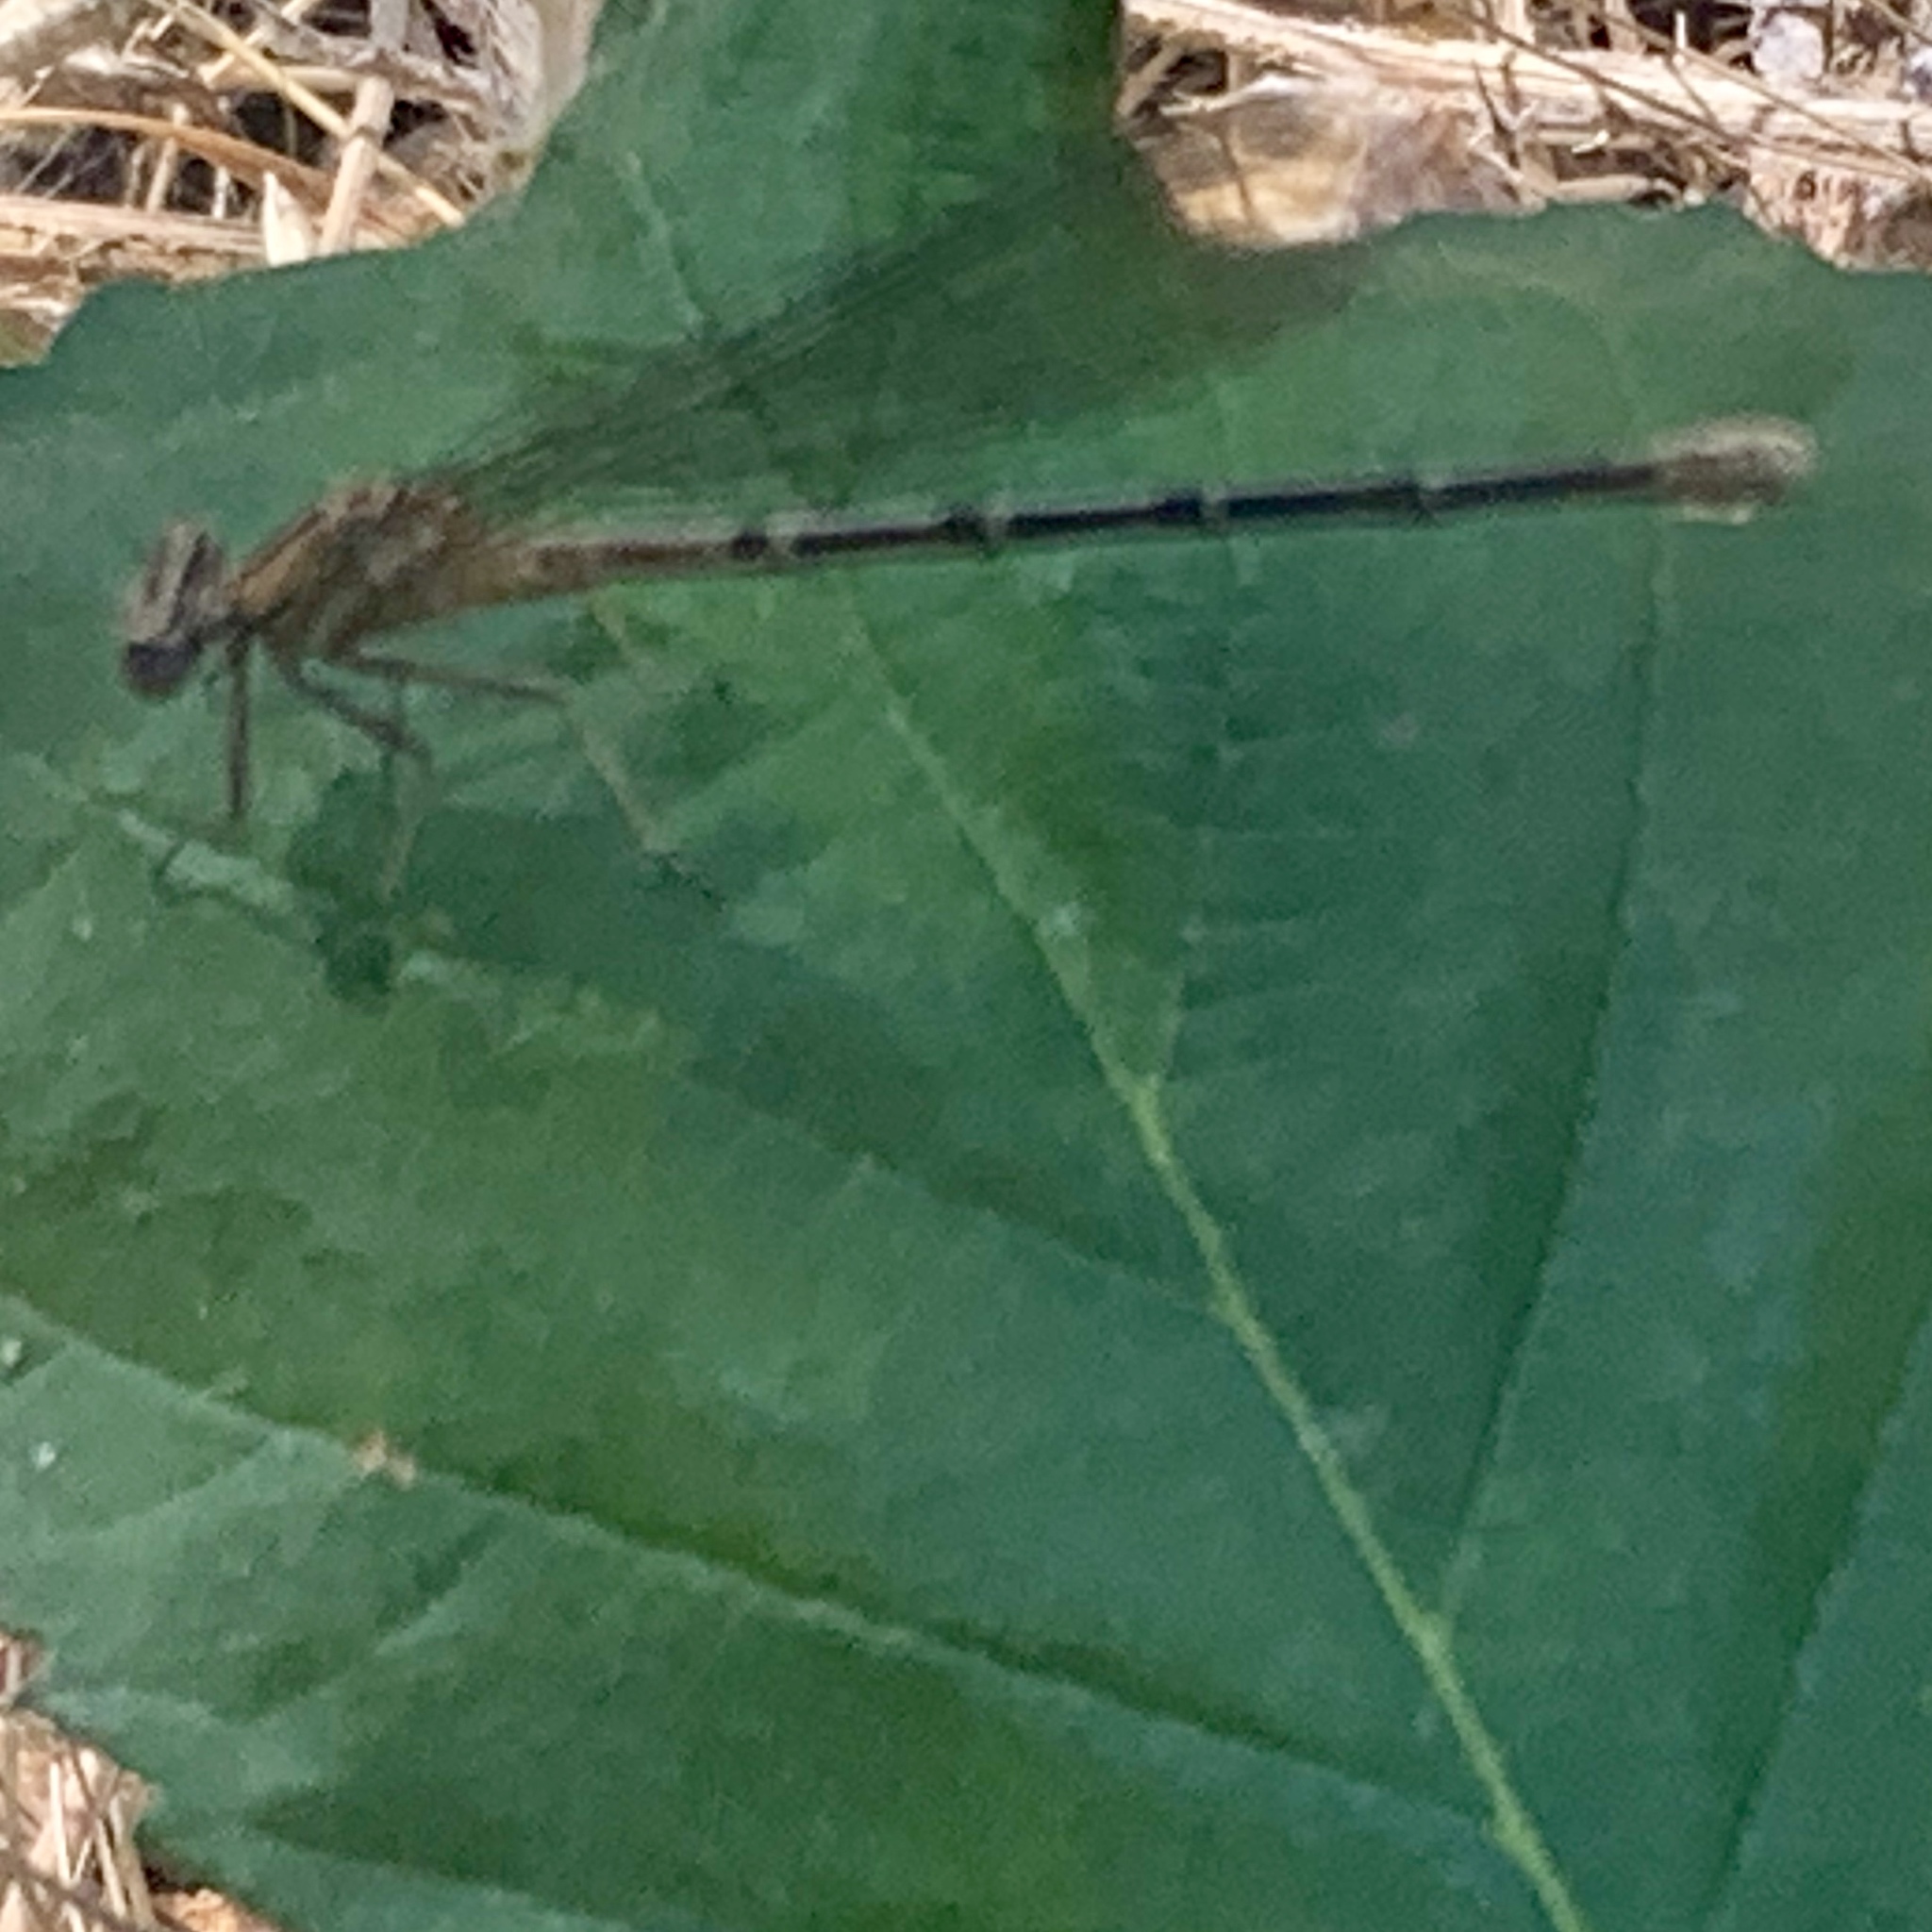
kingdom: Animalia
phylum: Arthropoda
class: Insecta
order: Odonata
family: Coenagrionidae
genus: Argia
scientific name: Argia emma
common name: Emma's dancer
